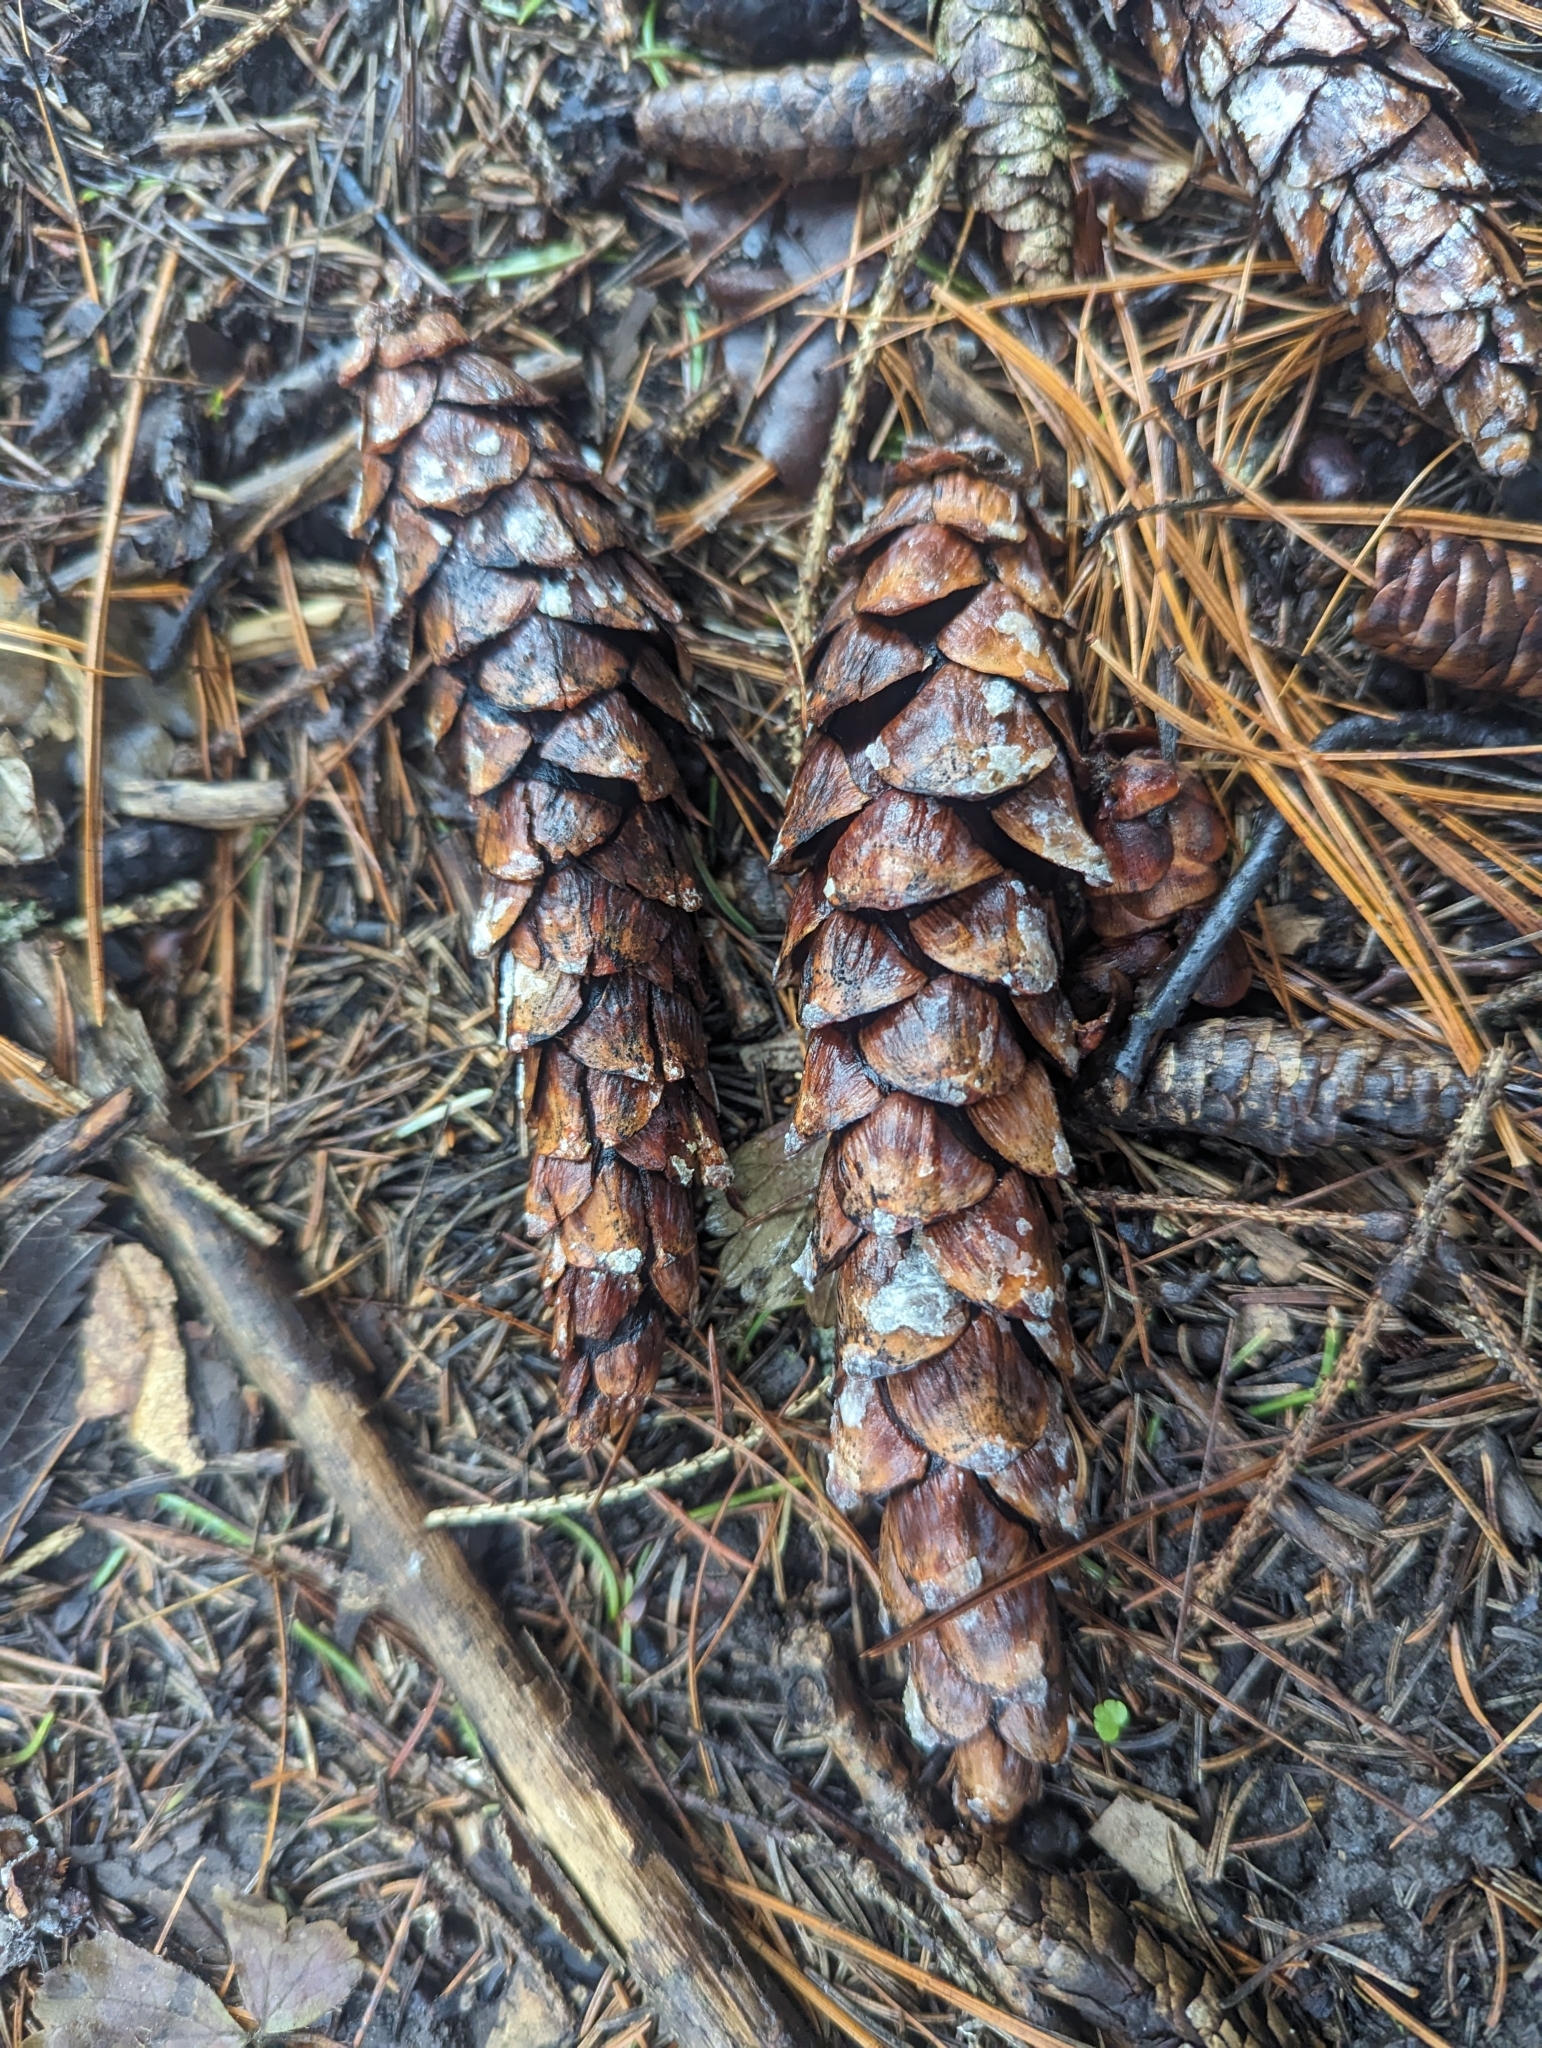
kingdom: Plantae
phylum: Tracheophyta
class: Pinopsida
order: Pinales
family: Pinaceae
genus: Pinus
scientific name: Pinus strobus
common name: Weymouth pine
